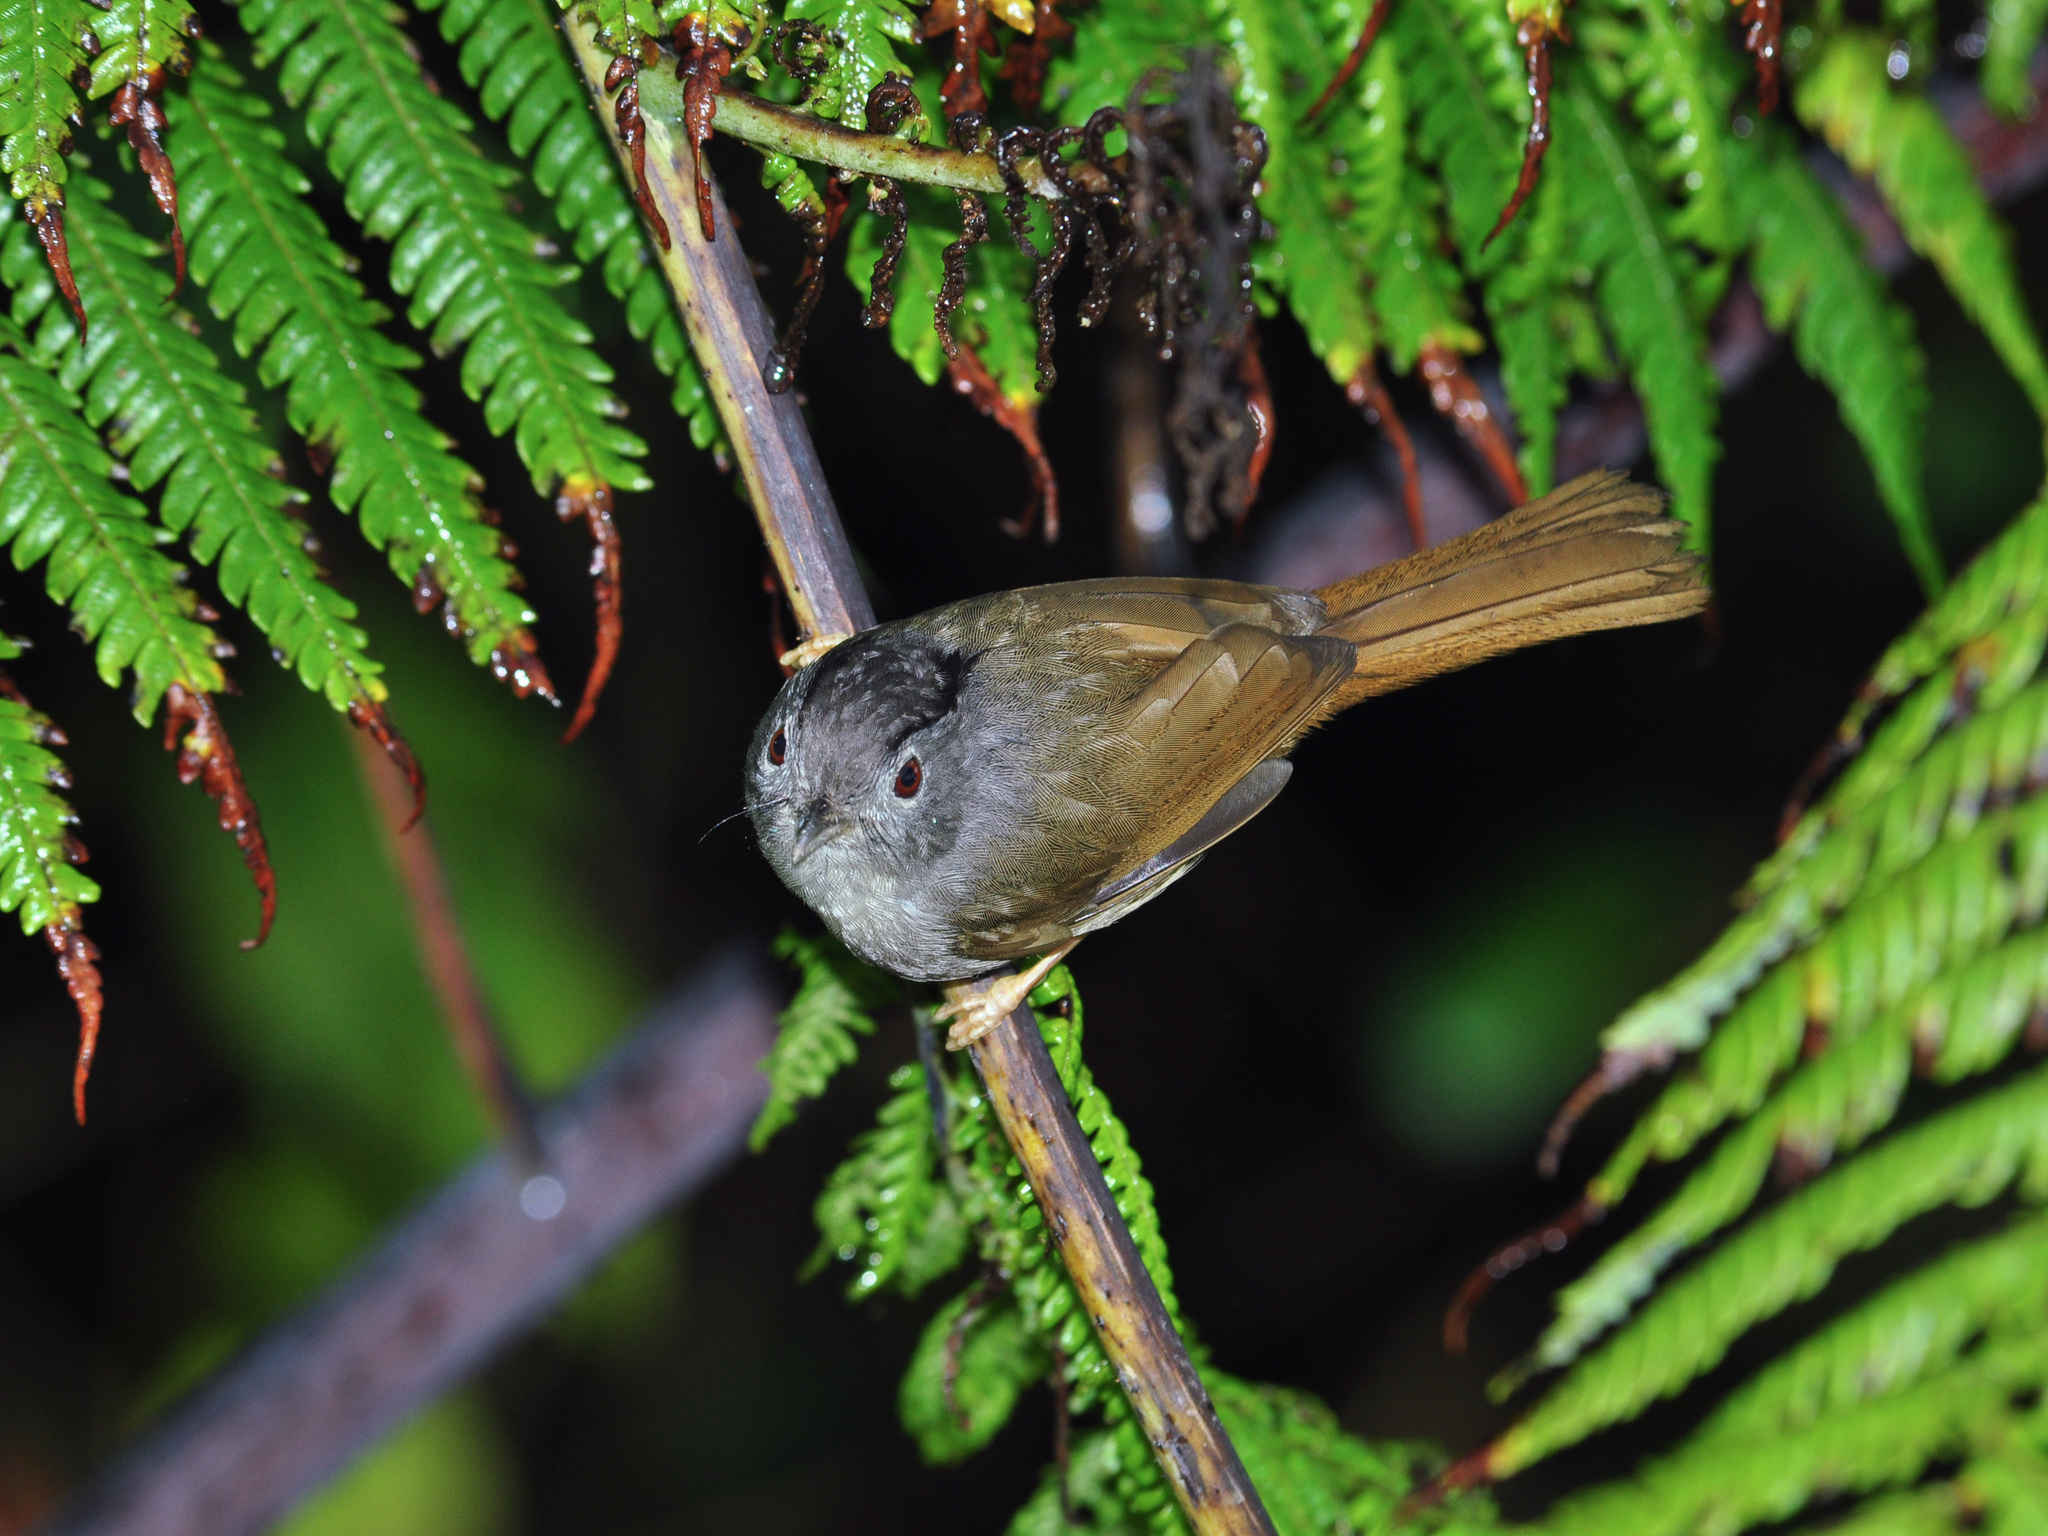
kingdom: Animalia
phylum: Chordata
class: Aves
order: Passeriformes
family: Pellorneidae
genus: Alcippe
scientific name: Alcippe peracensis
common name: Mountain fulvetta
